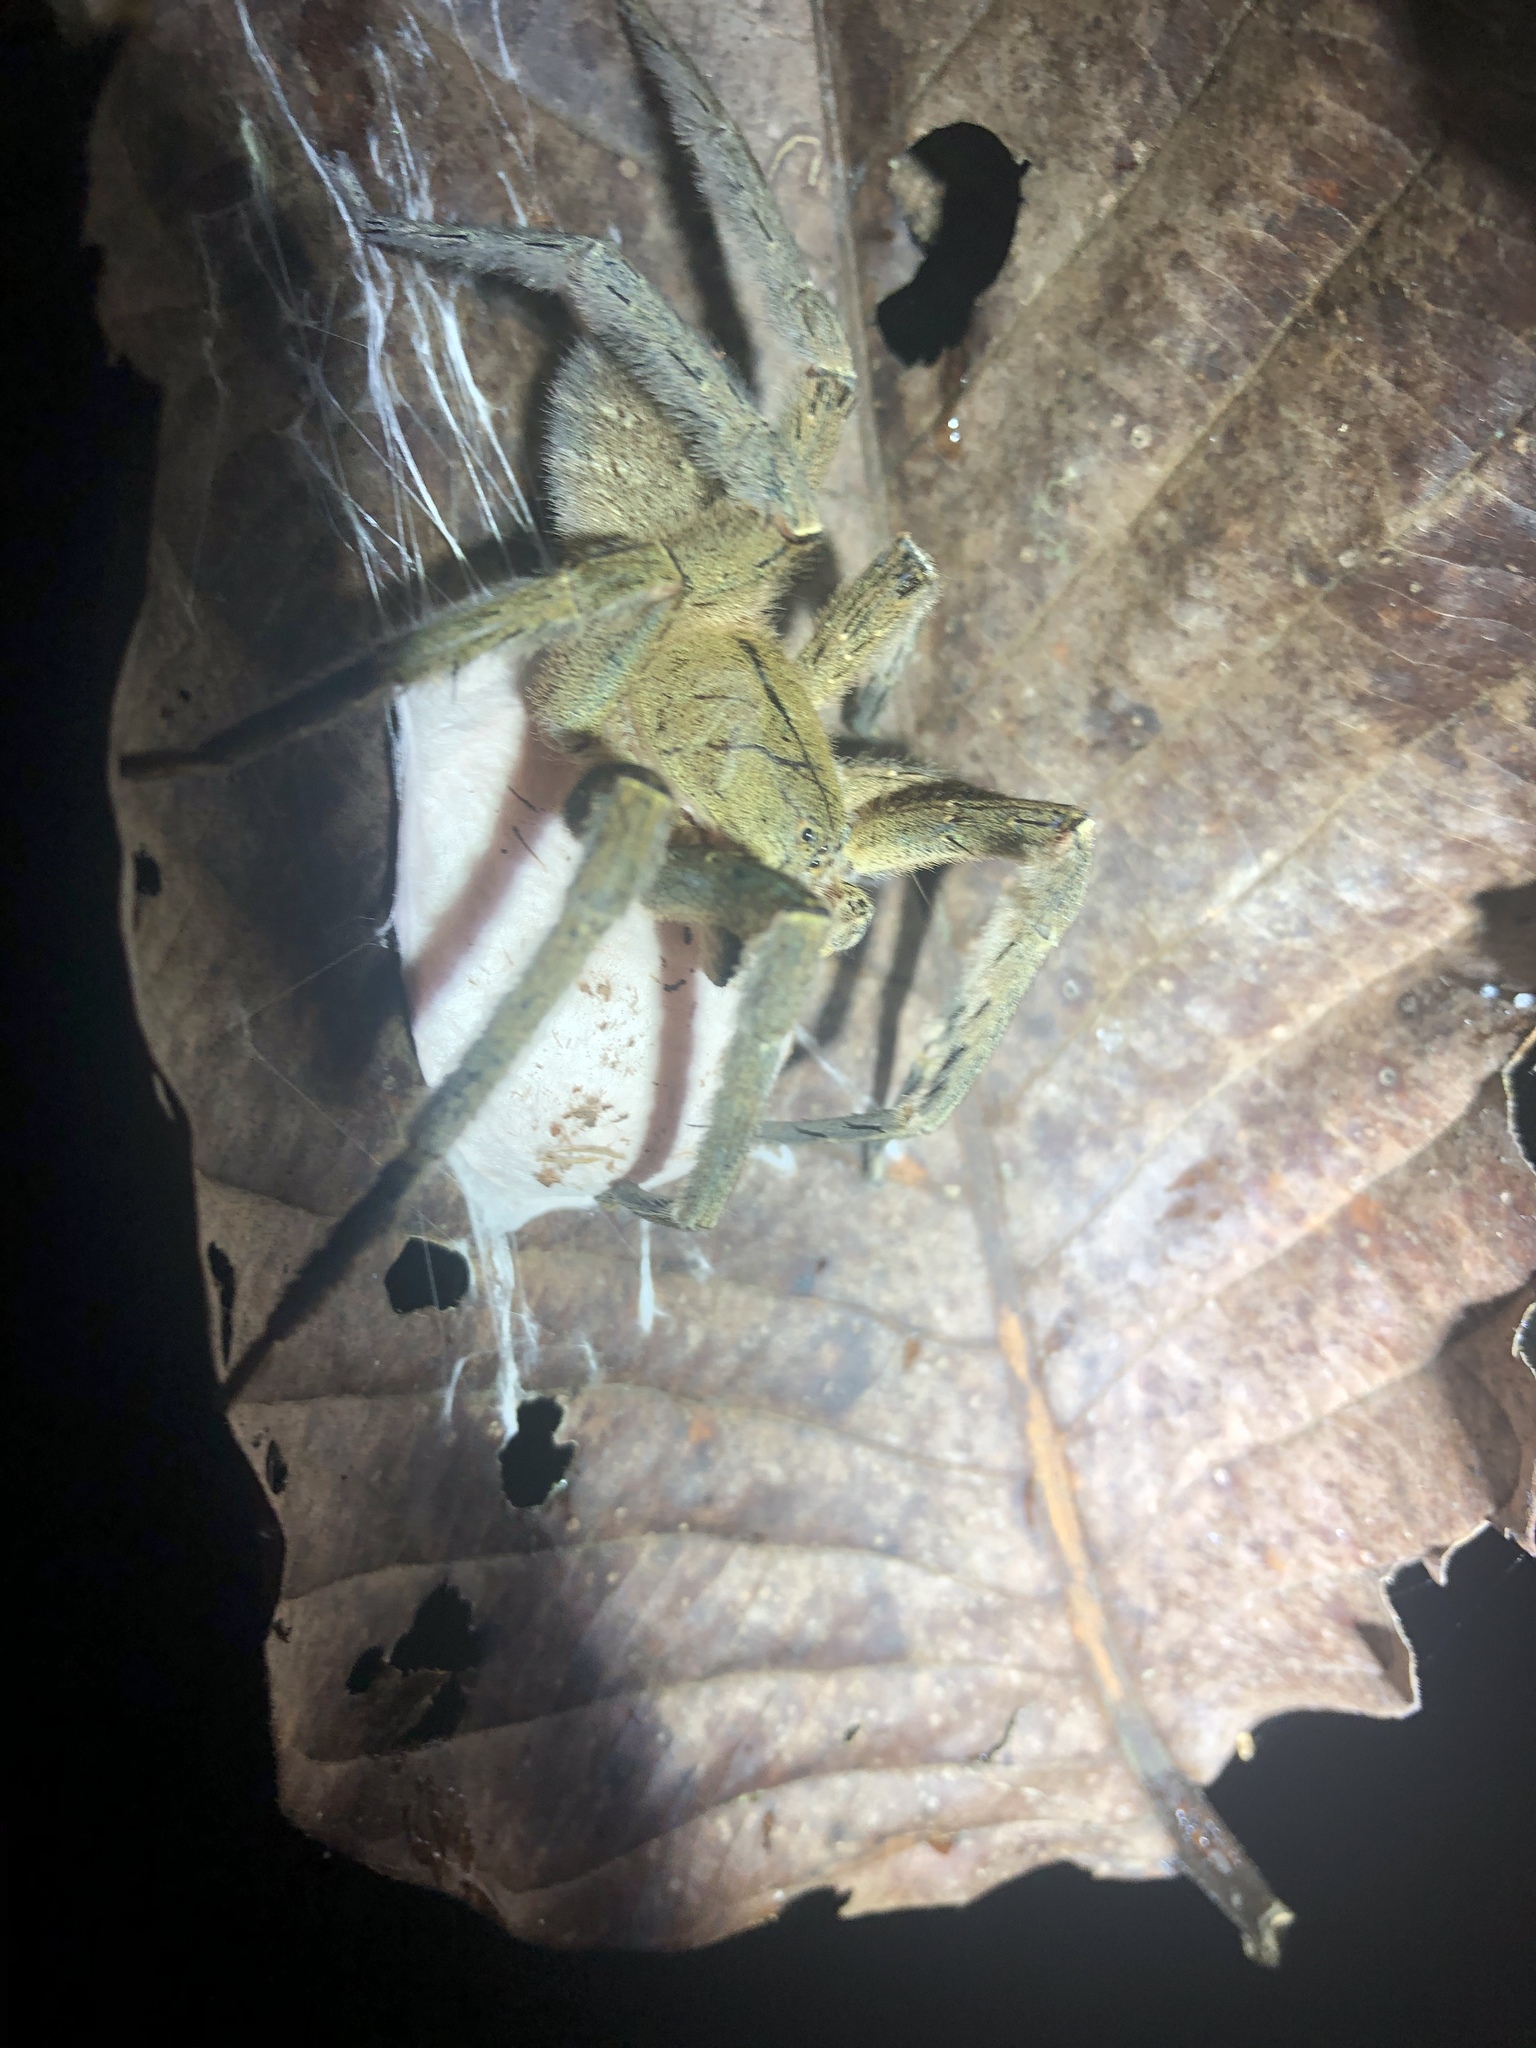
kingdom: Animalia
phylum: Arthropoda
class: Arachnida
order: Araneae
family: Ctenidae
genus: Phoneutria
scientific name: Phoneutria depilata
